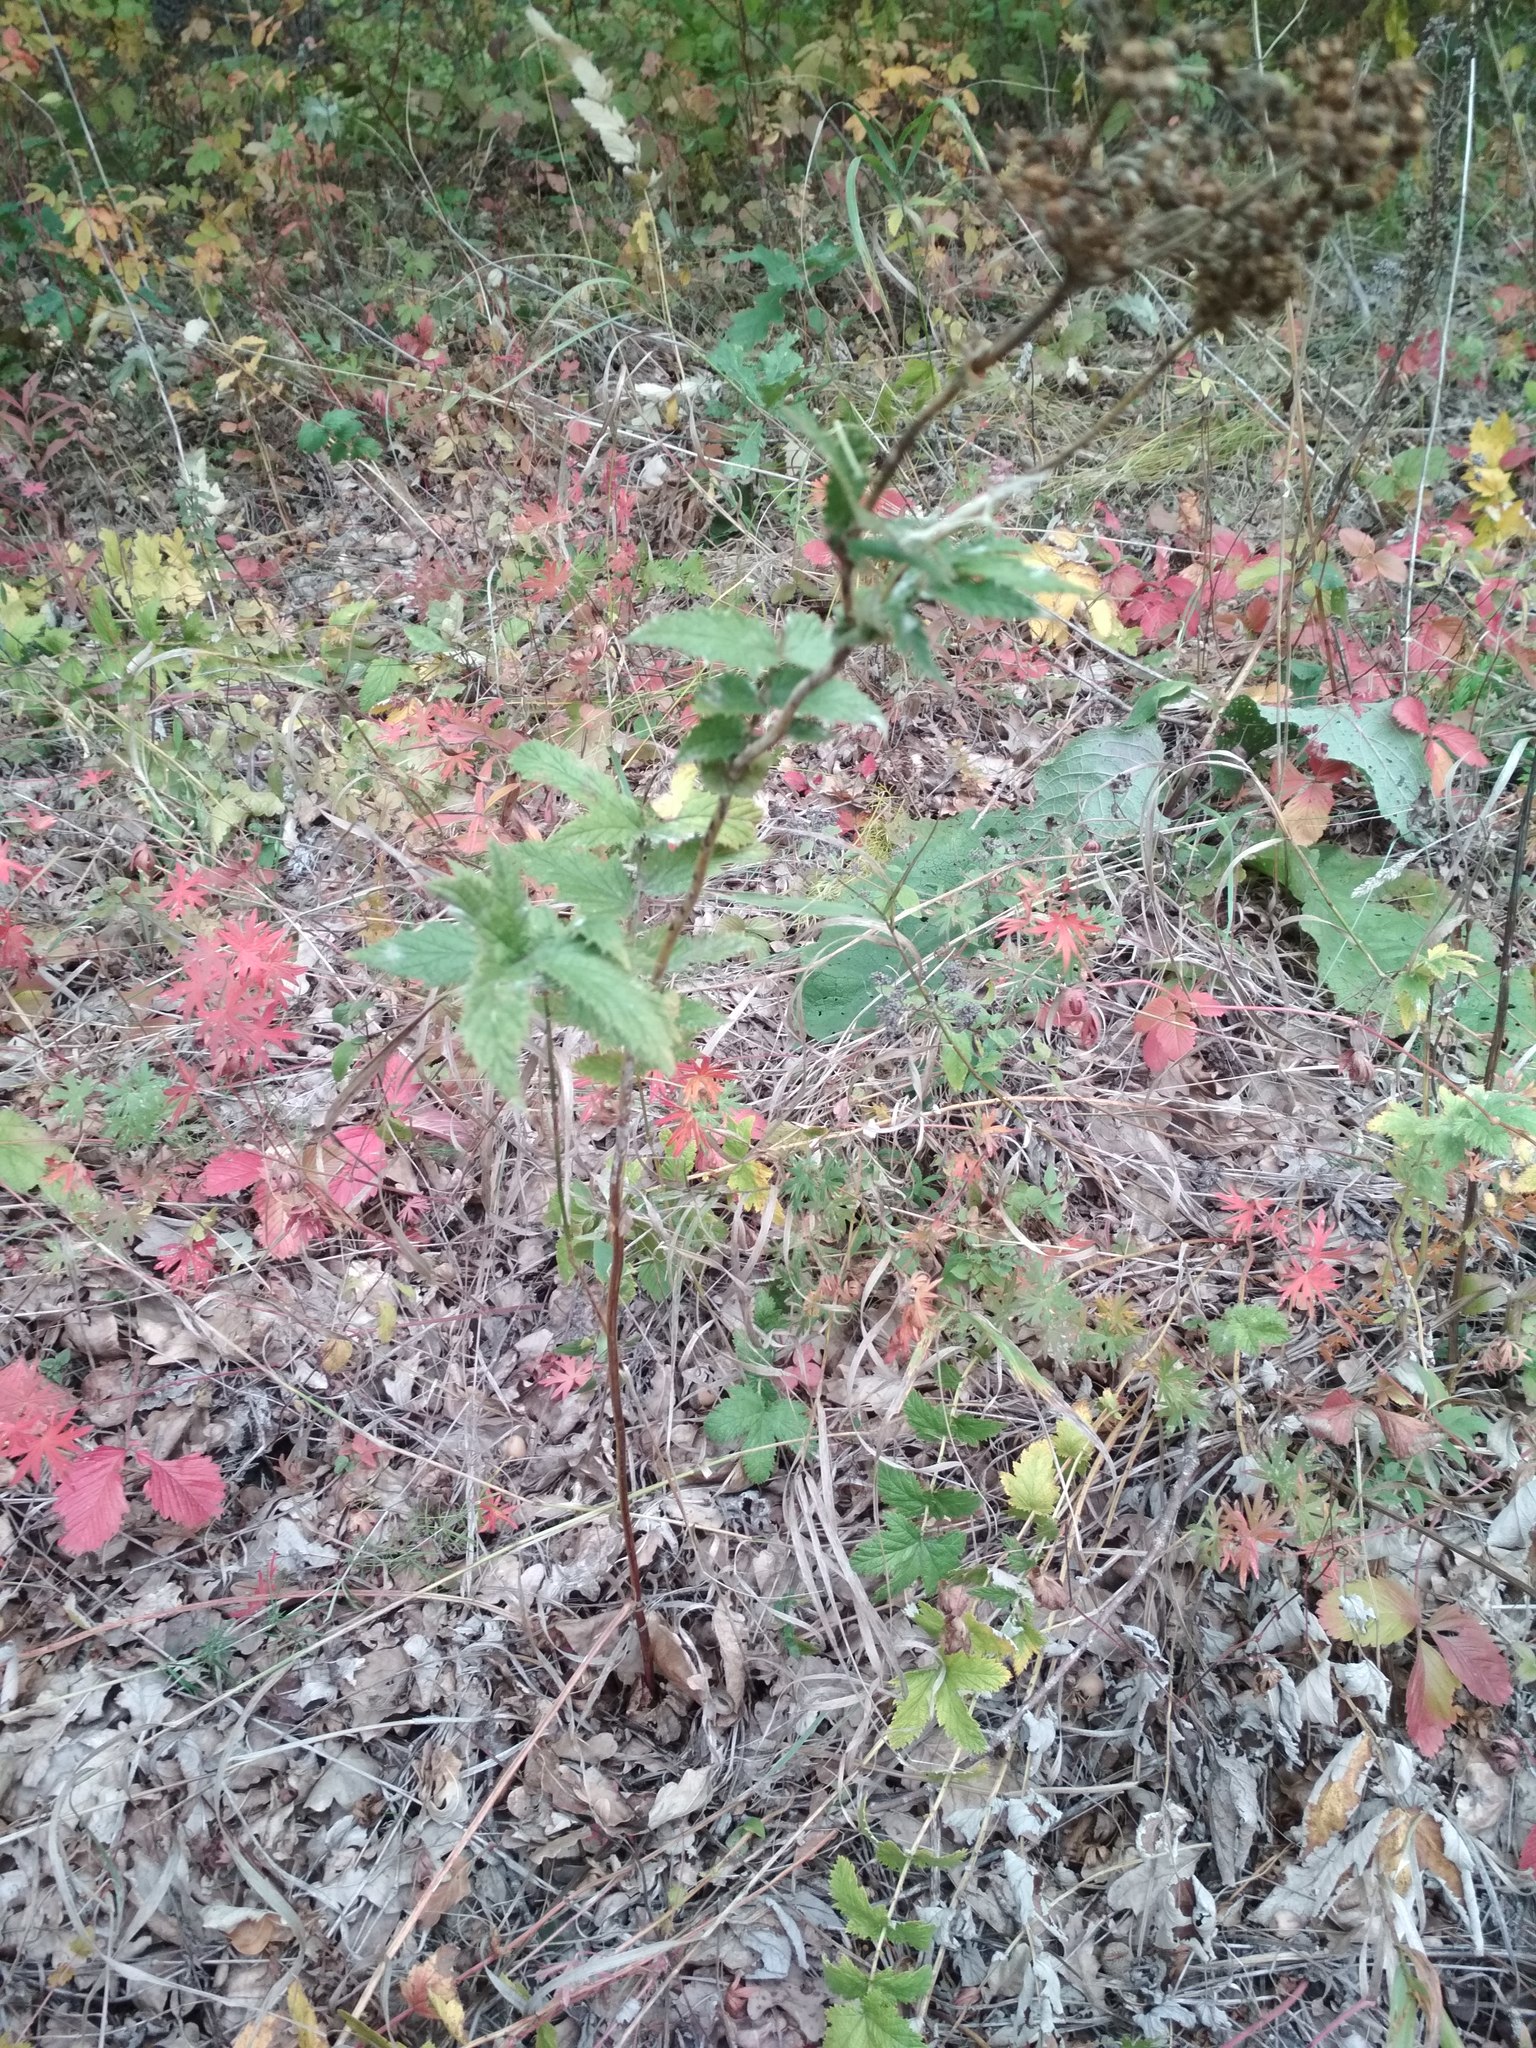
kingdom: Plantae
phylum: Tracheophyta
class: Magnoliopsida
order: Rosales
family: Rosaceae
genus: Filipendula
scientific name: Filipendula ulmaria
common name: Meadowsweet
